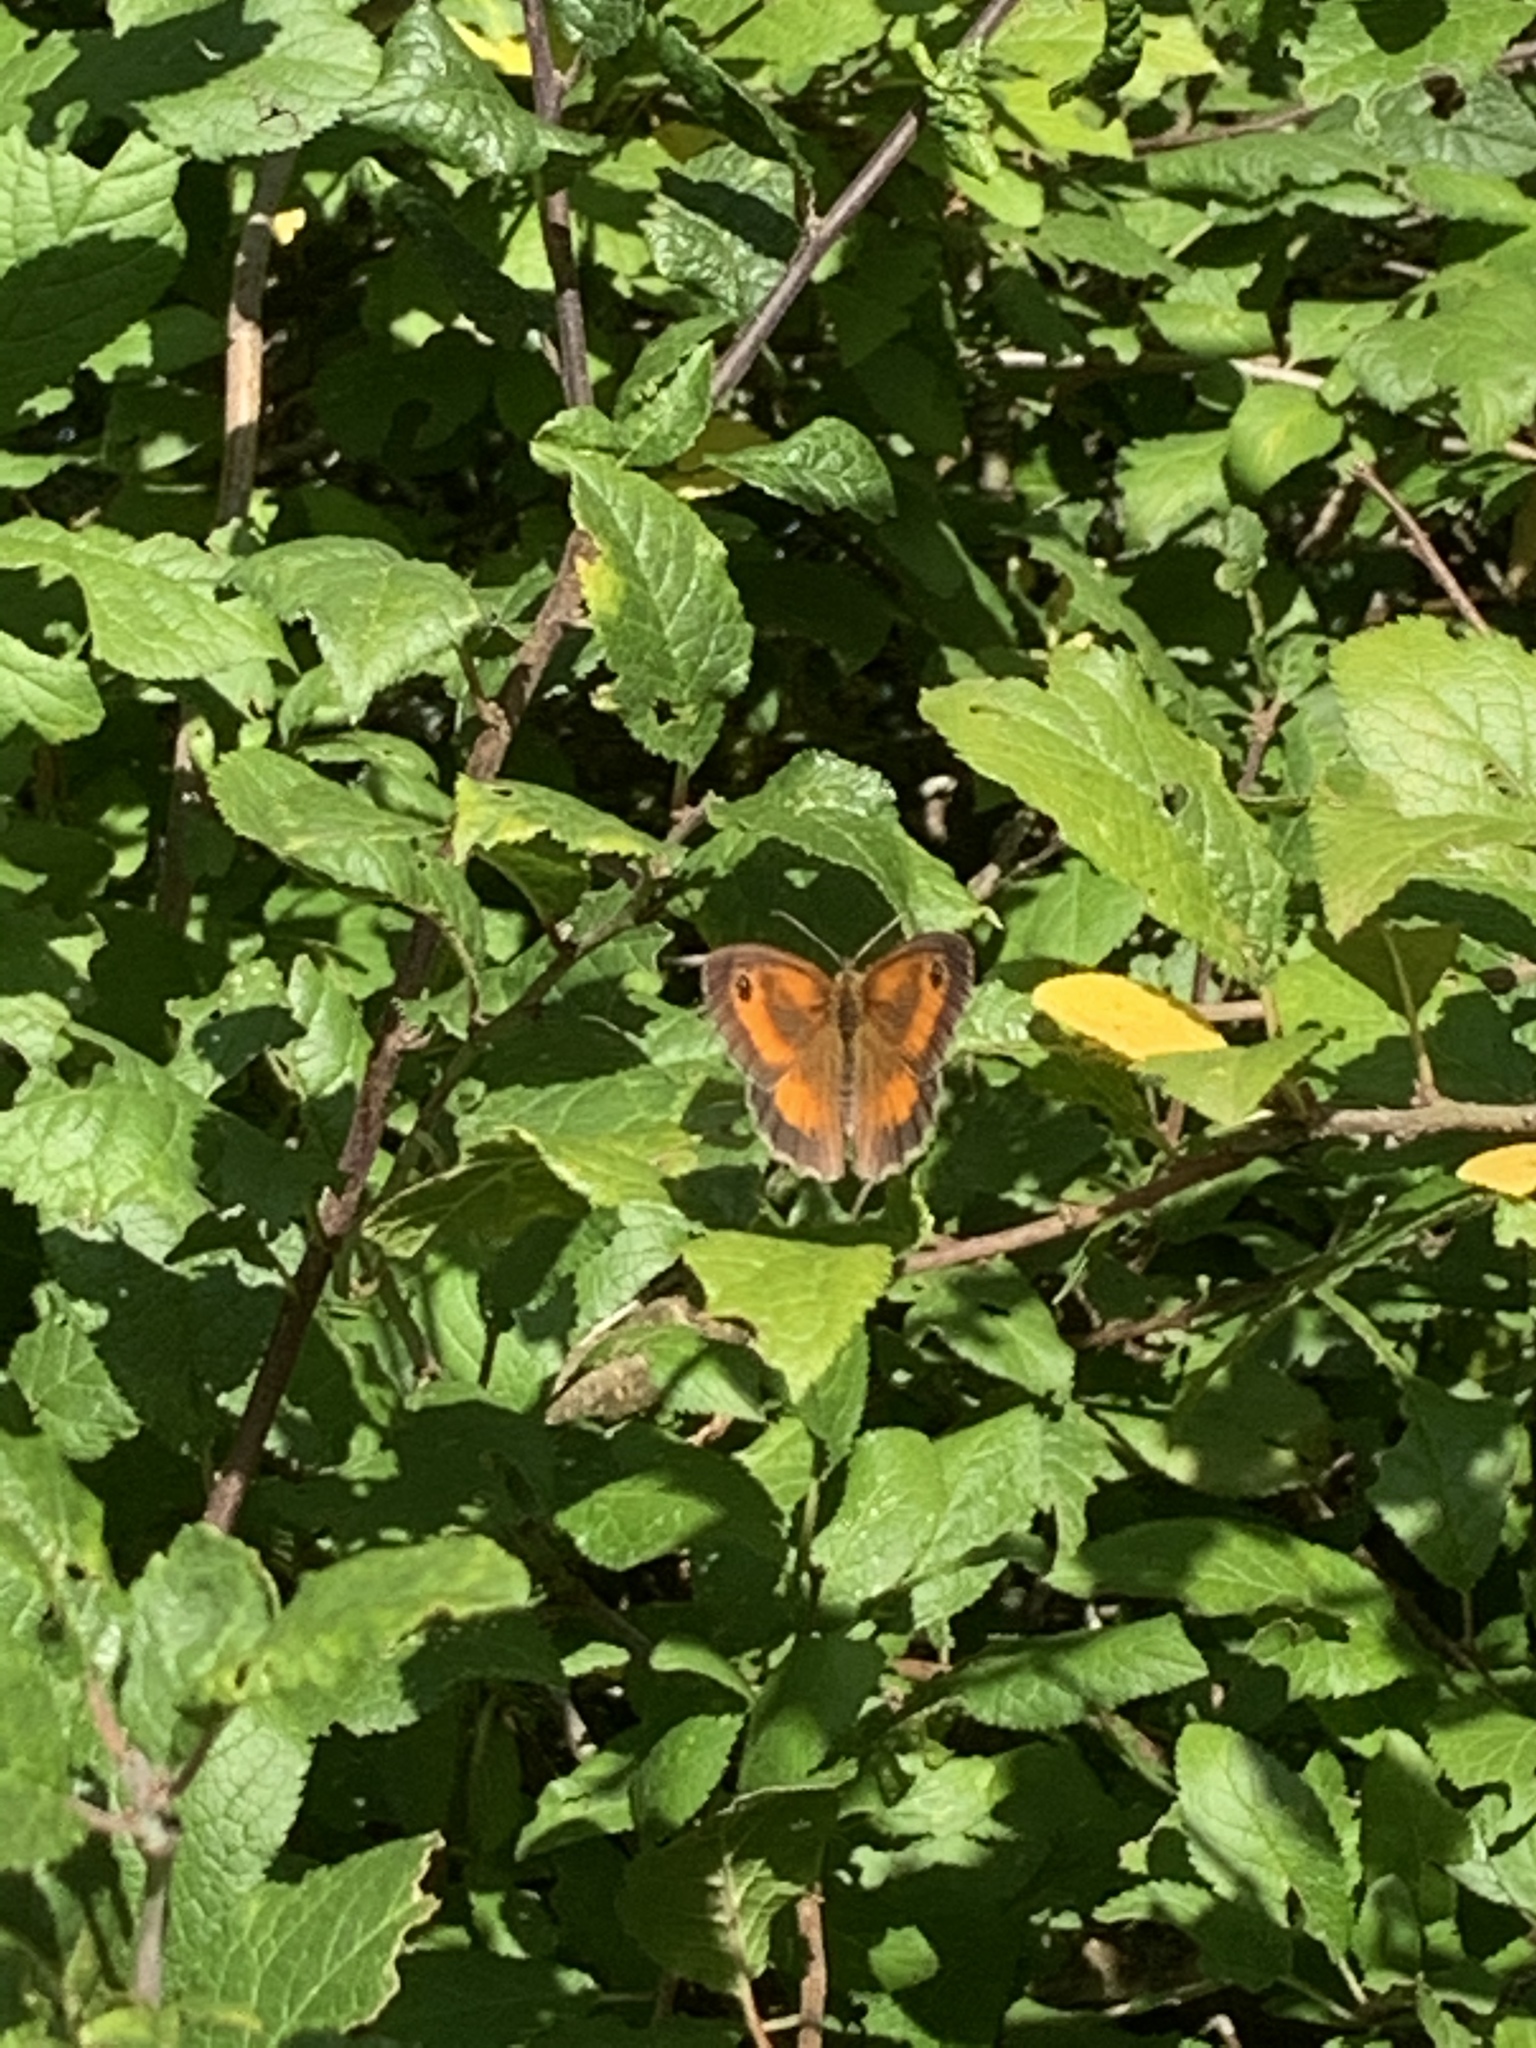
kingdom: Animalia
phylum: Arthropoda
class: Insecta
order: Lepidoptera
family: Nymphalidae
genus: Pyronia
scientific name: Pyronia tithonus
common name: Gatekeeper
